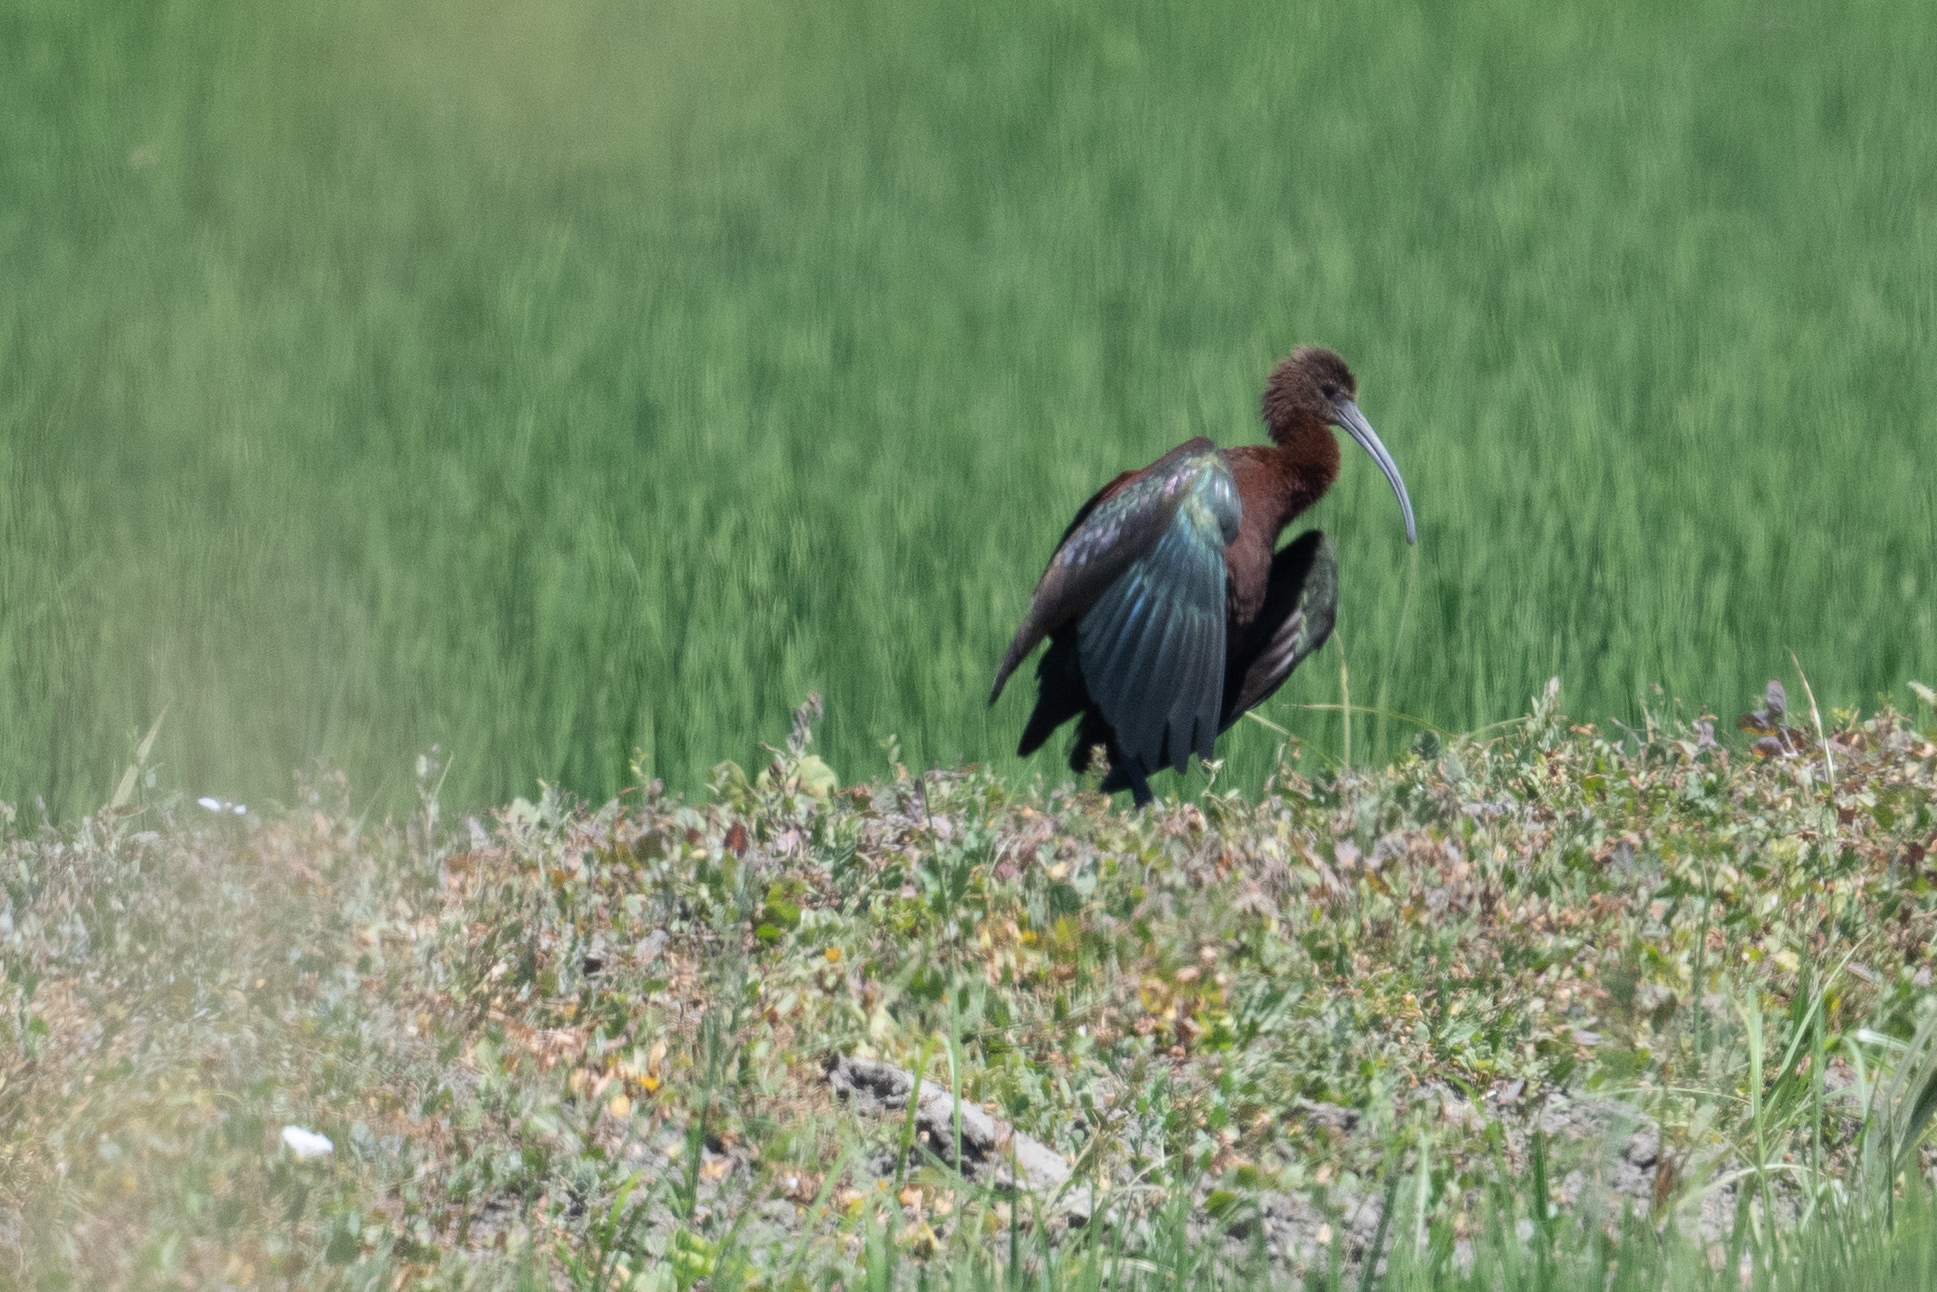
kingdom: Animalia
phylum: Chordata
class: Aves
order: Pelecaniformes
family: Threskiornithidae
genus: Plegadis
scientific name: Plegadis chihi
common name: White-faced ibis
